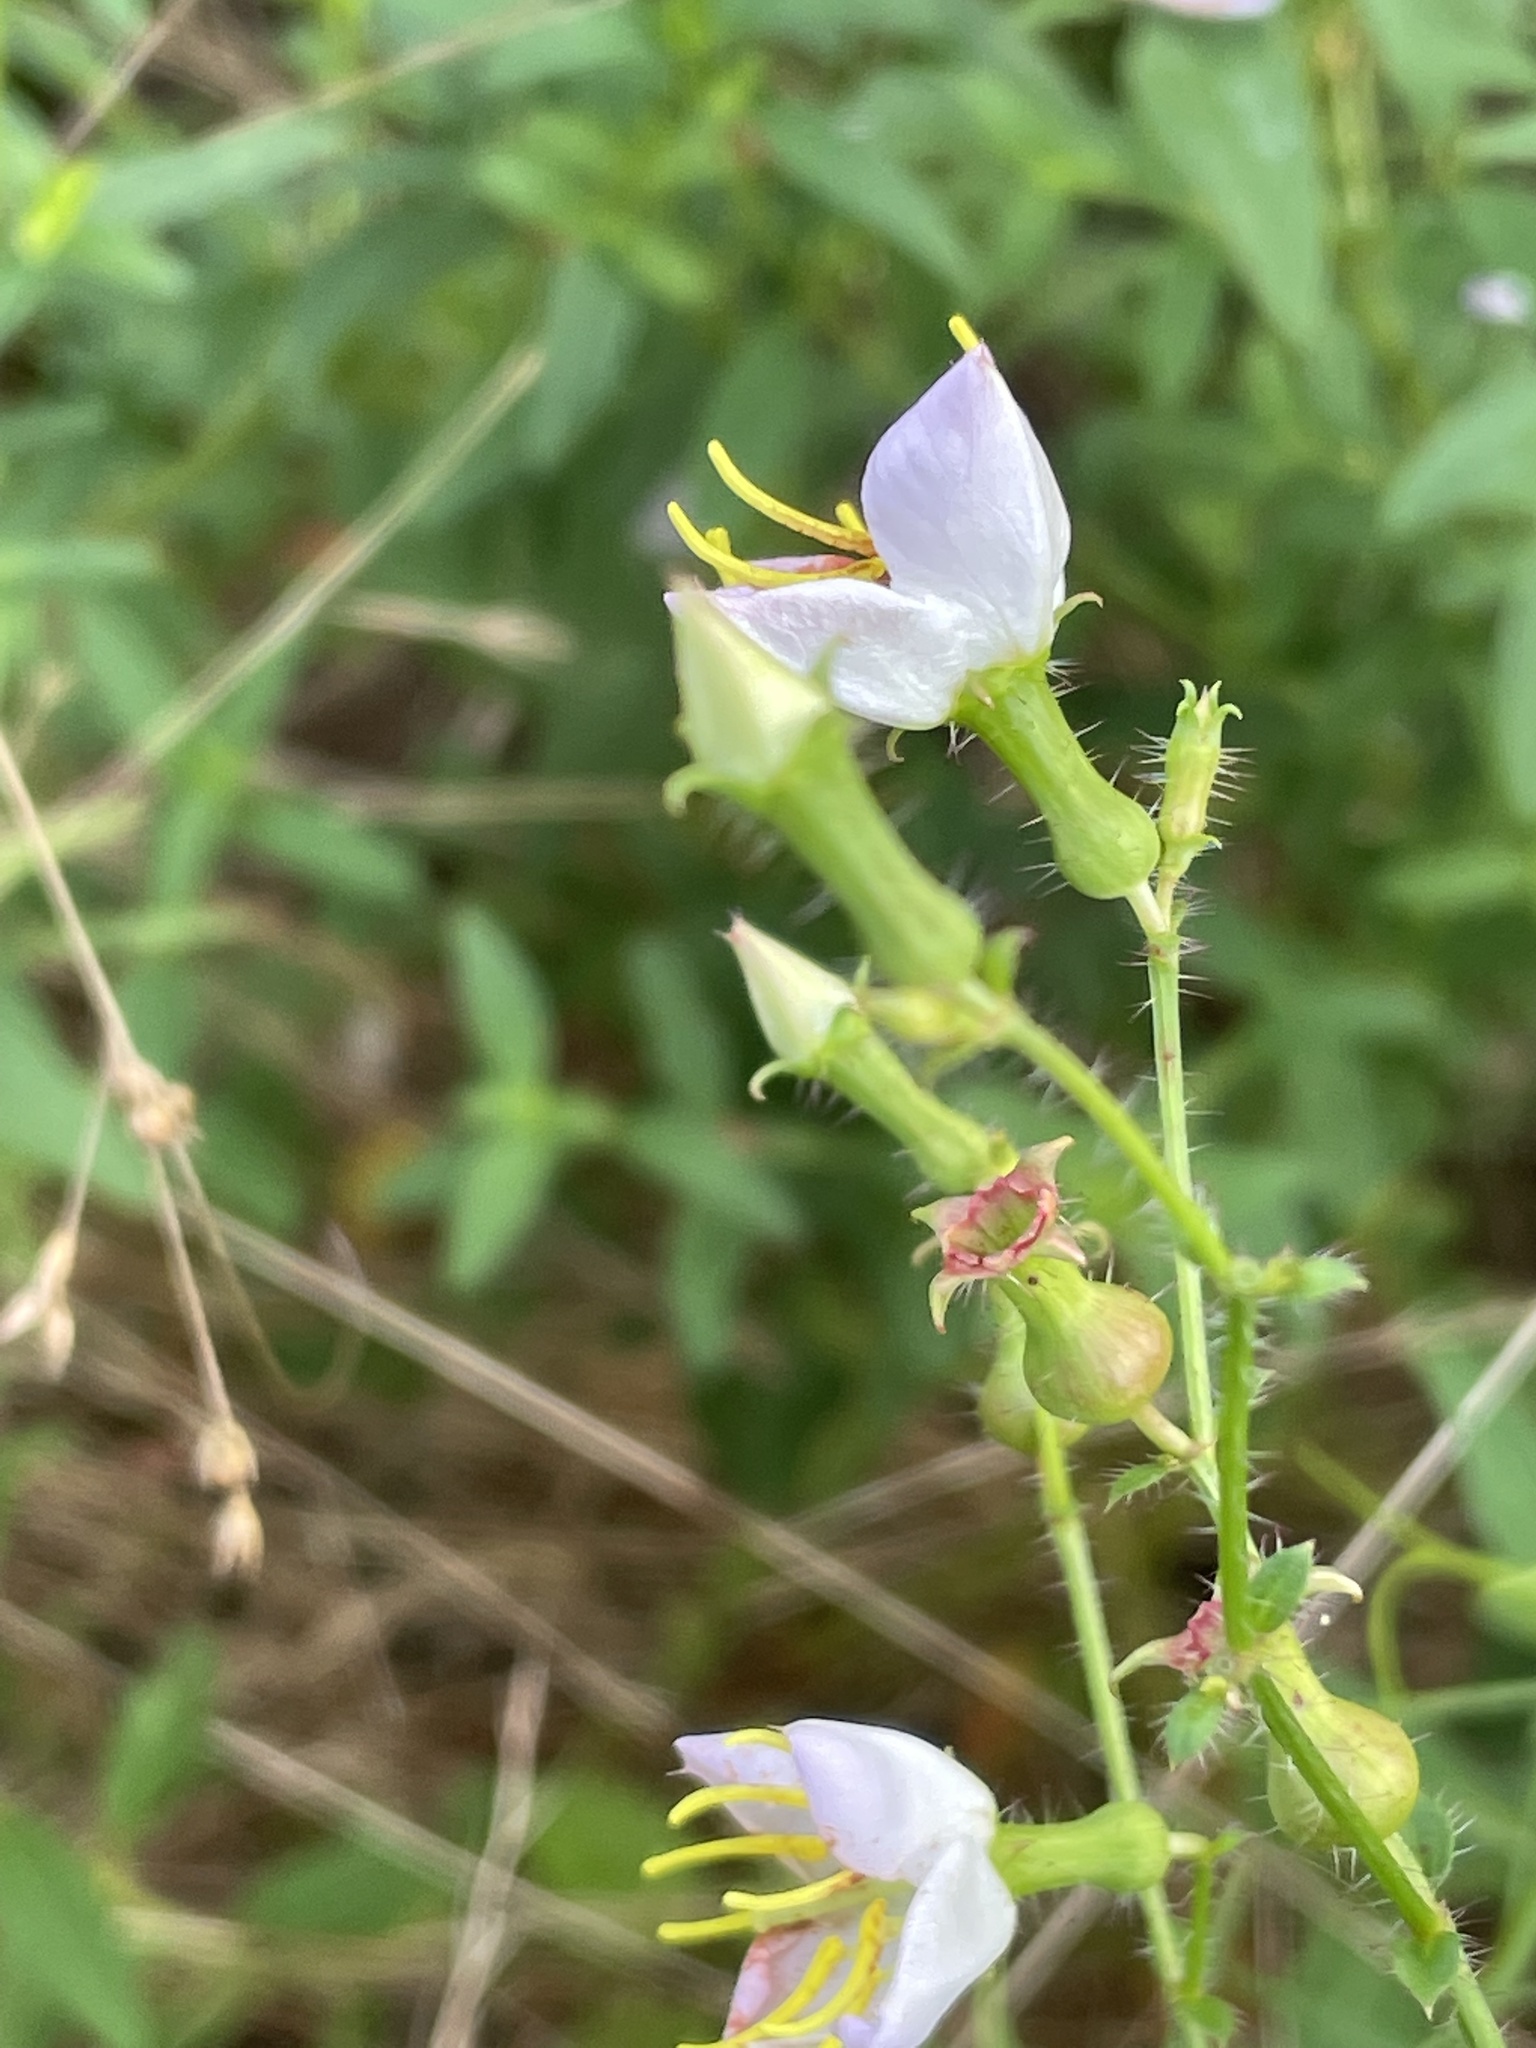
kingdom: Plantae
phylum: Tracheophyta
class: Magnoliopsida
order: Myrtales
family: Melastomataceae
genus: Rhexia
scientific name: Rhexia mariana
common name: Dull meadow-pitcher
